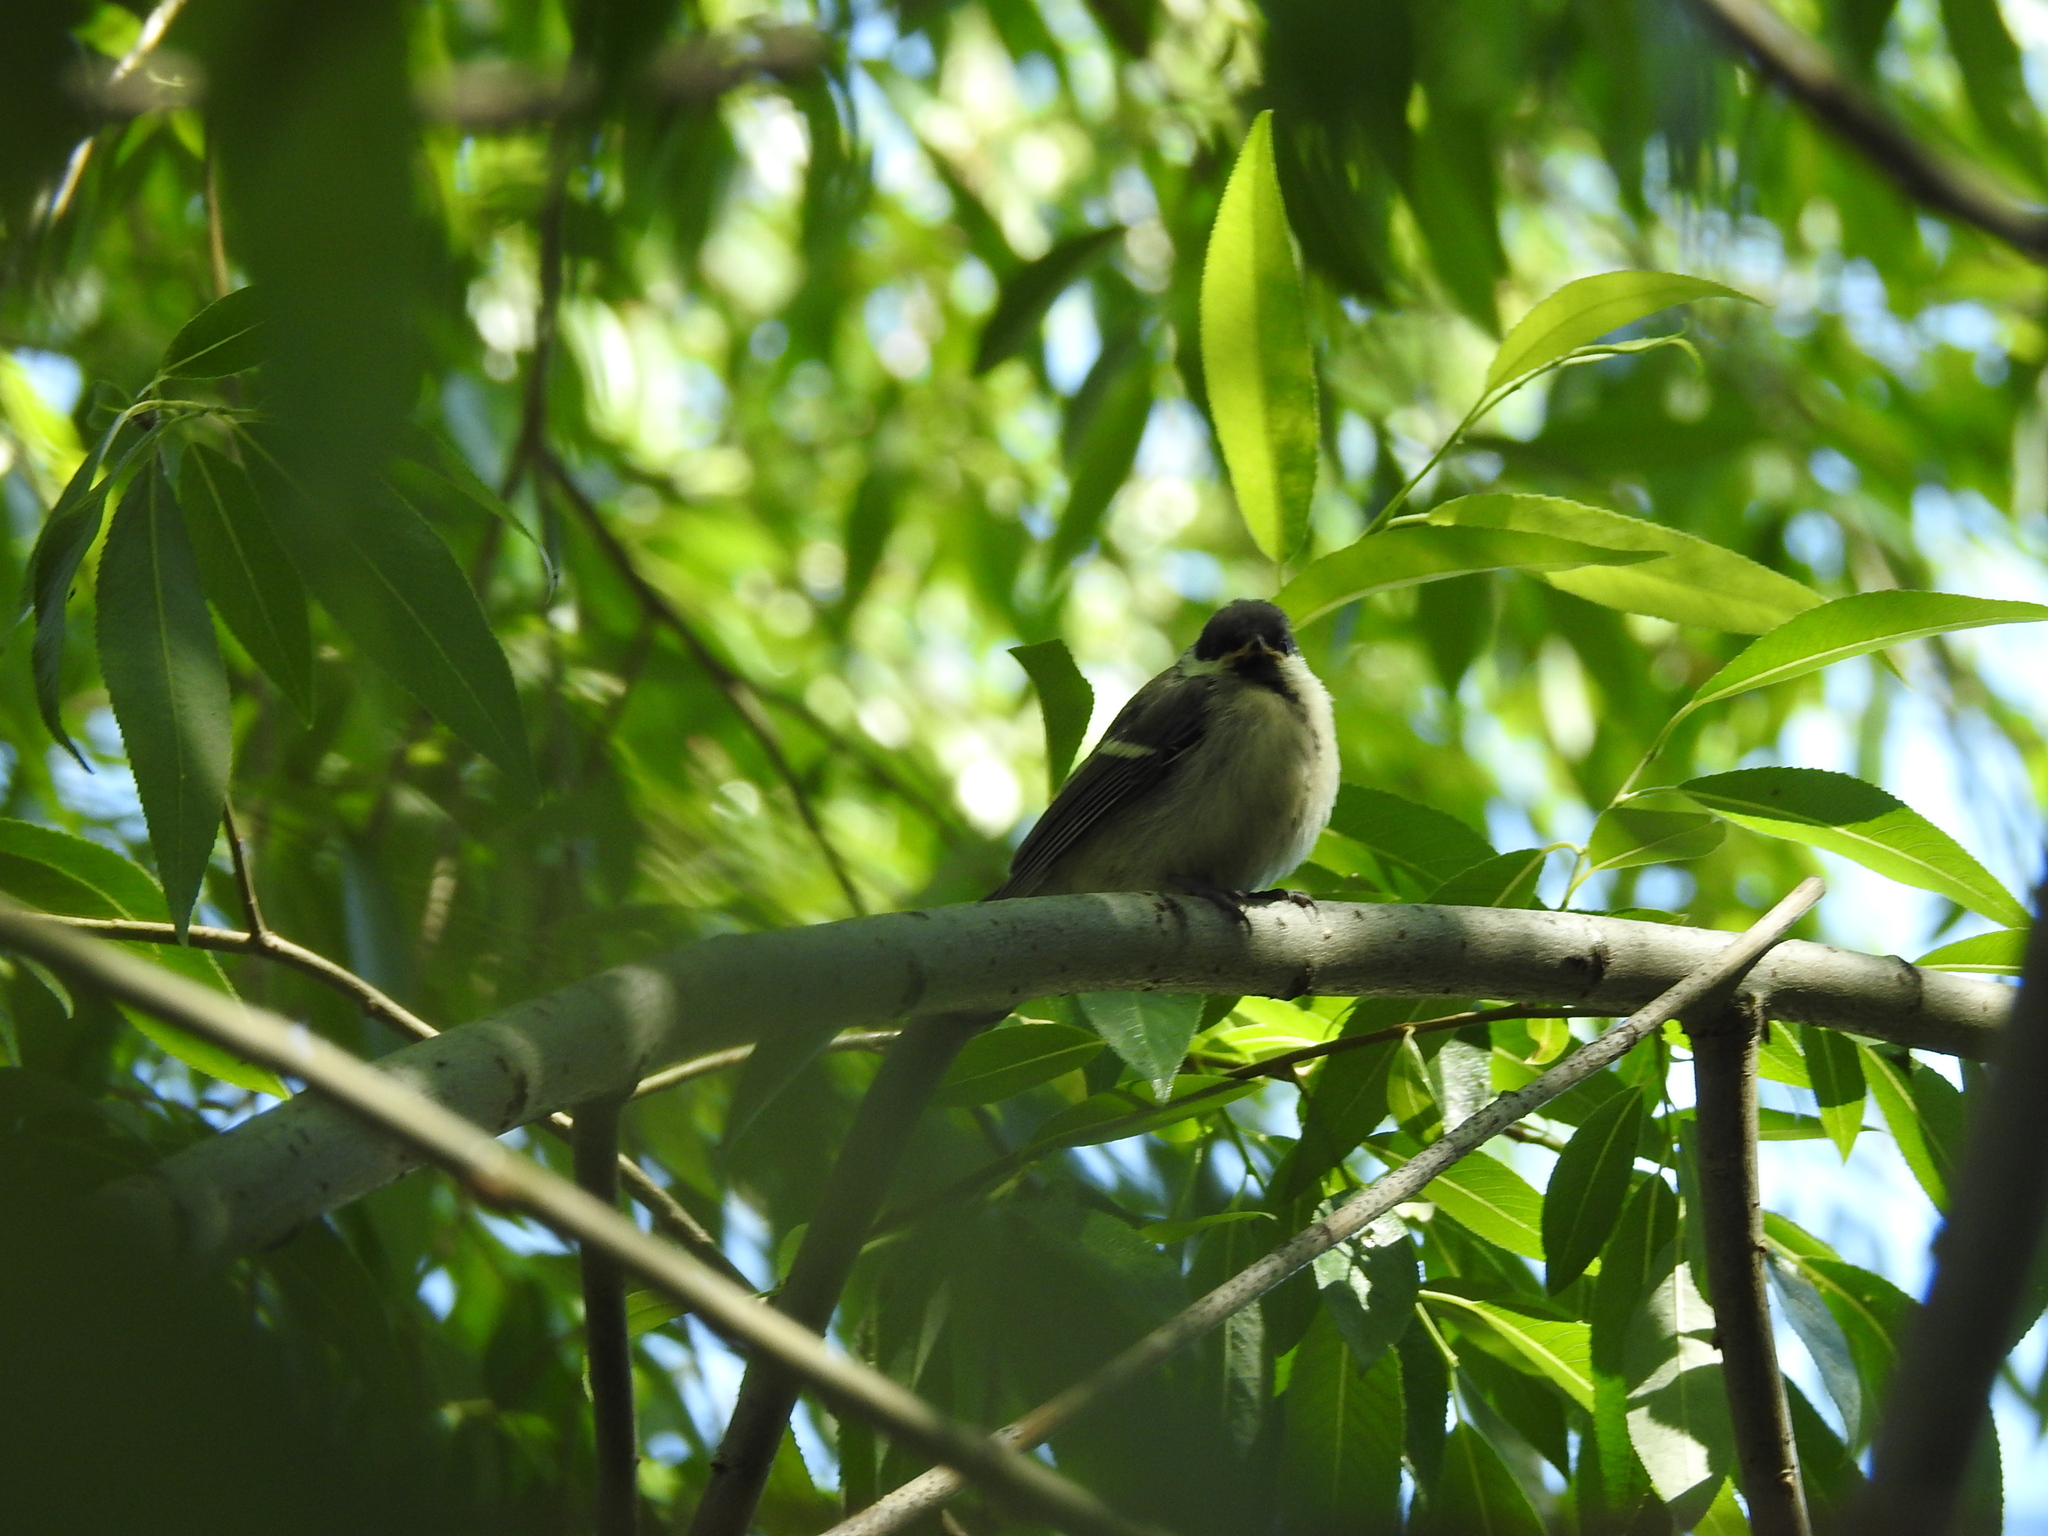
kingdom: Animalia
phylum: Chordata
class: Aves
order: Passeriformes
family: Paridae
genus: Parus
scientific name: Parus major
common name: Great tit
